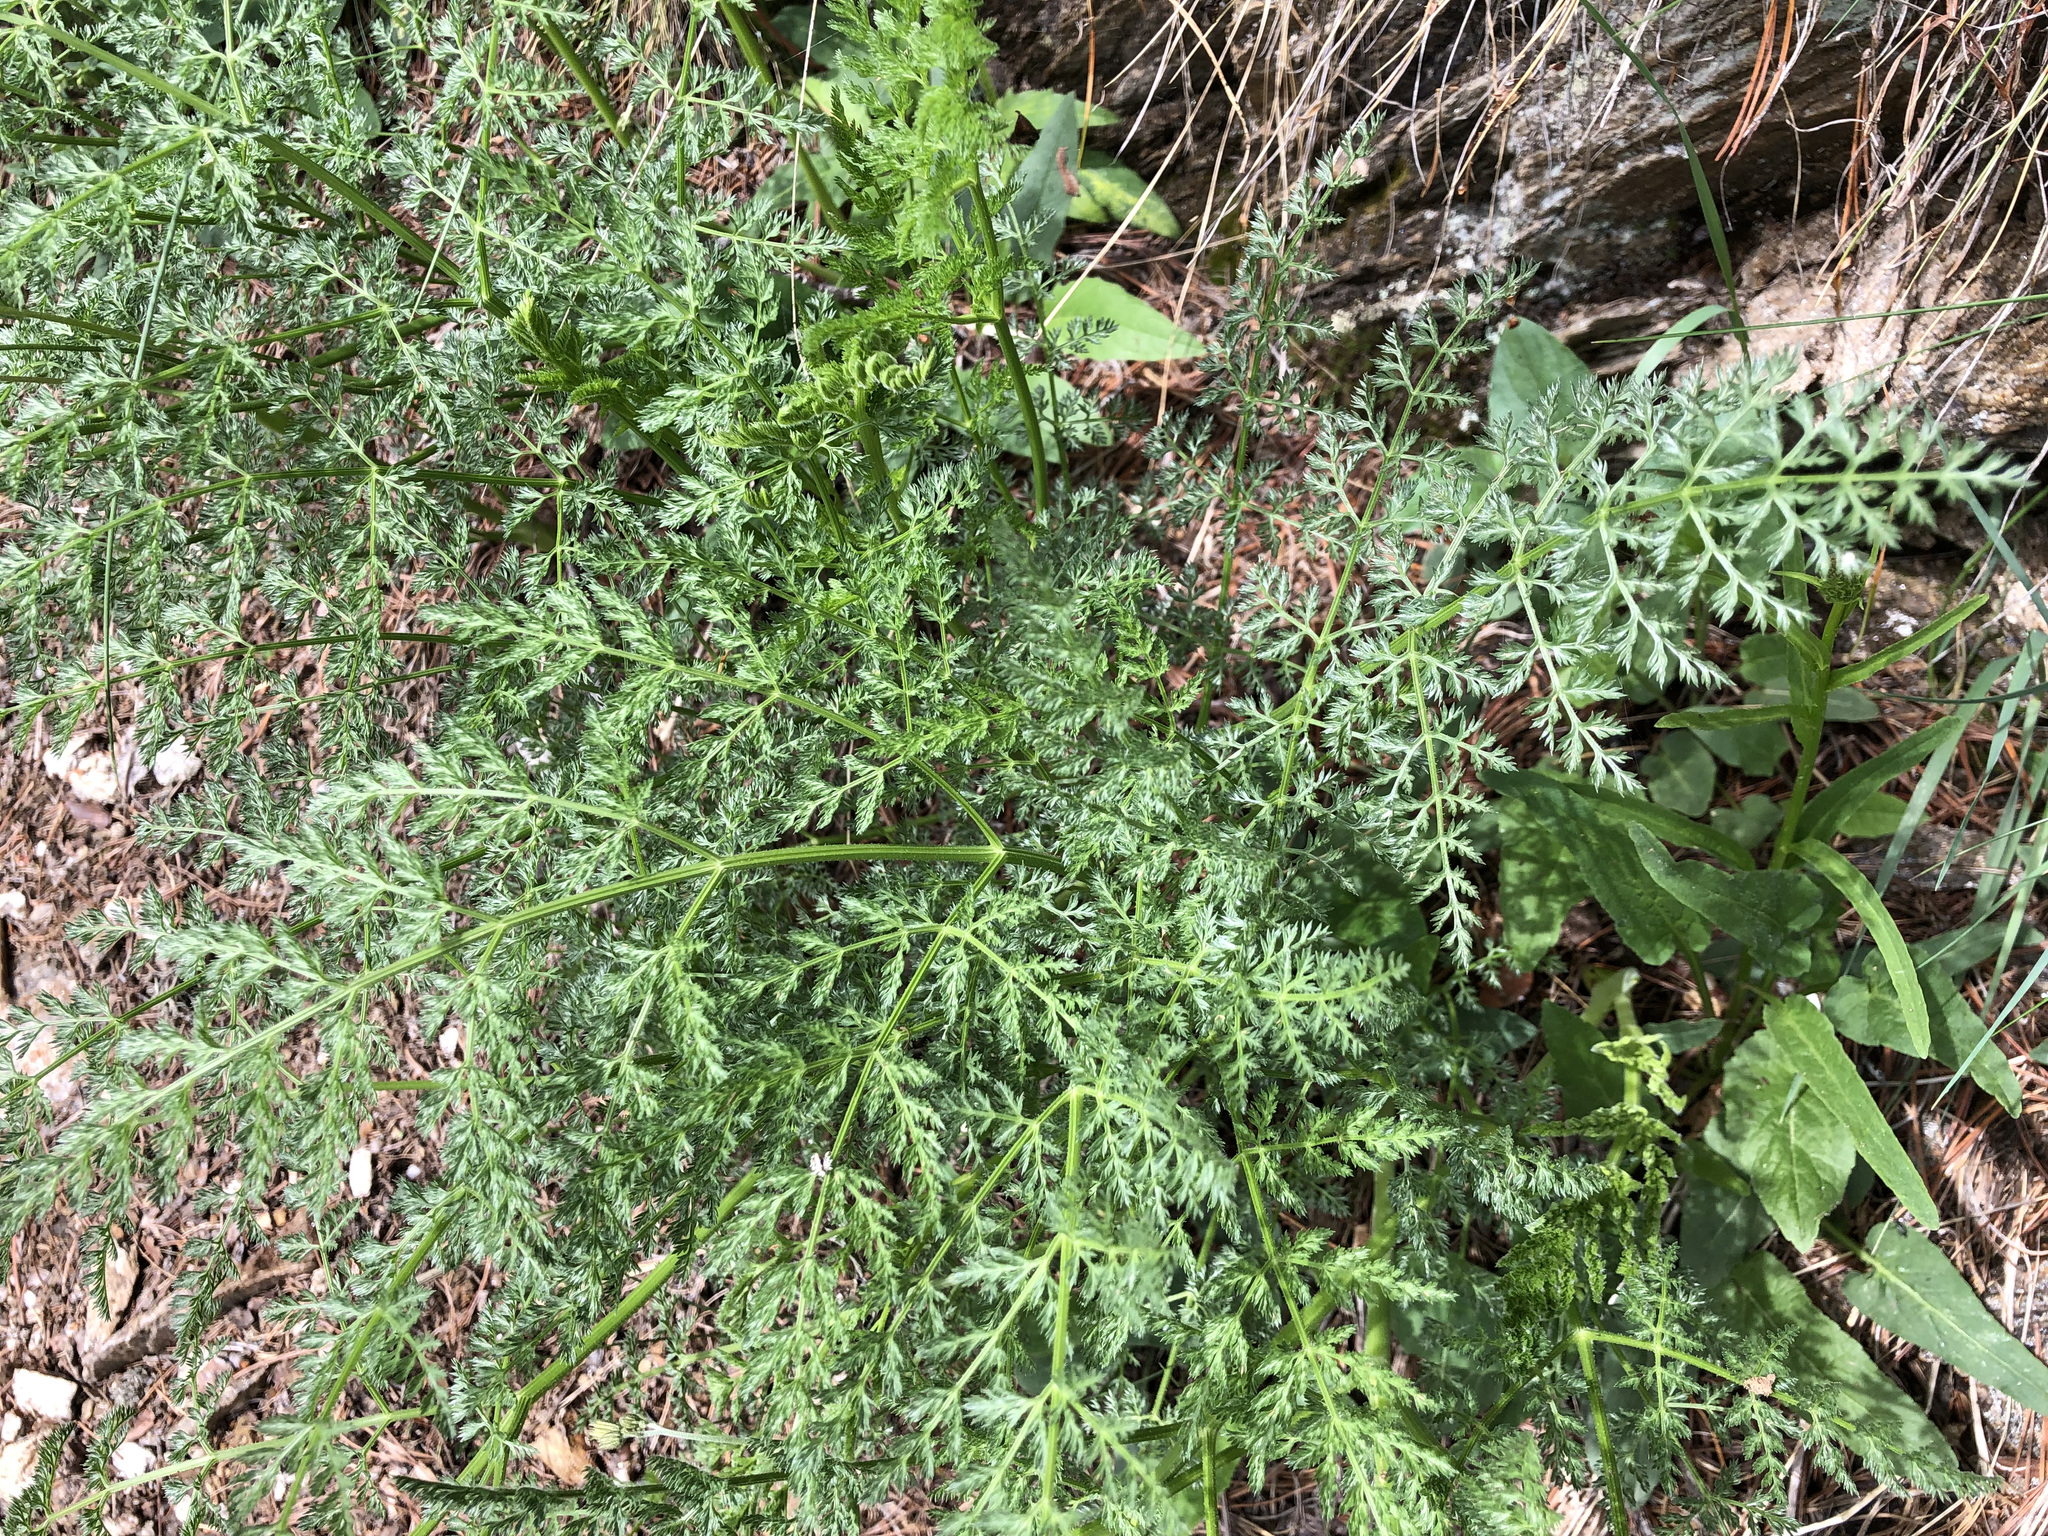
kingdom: Plantae
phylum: Tracheophyta
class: Magnoliopsida
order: Apiales
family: Apiaceae
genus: Laserpitium
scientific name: Laserpitium halleri
